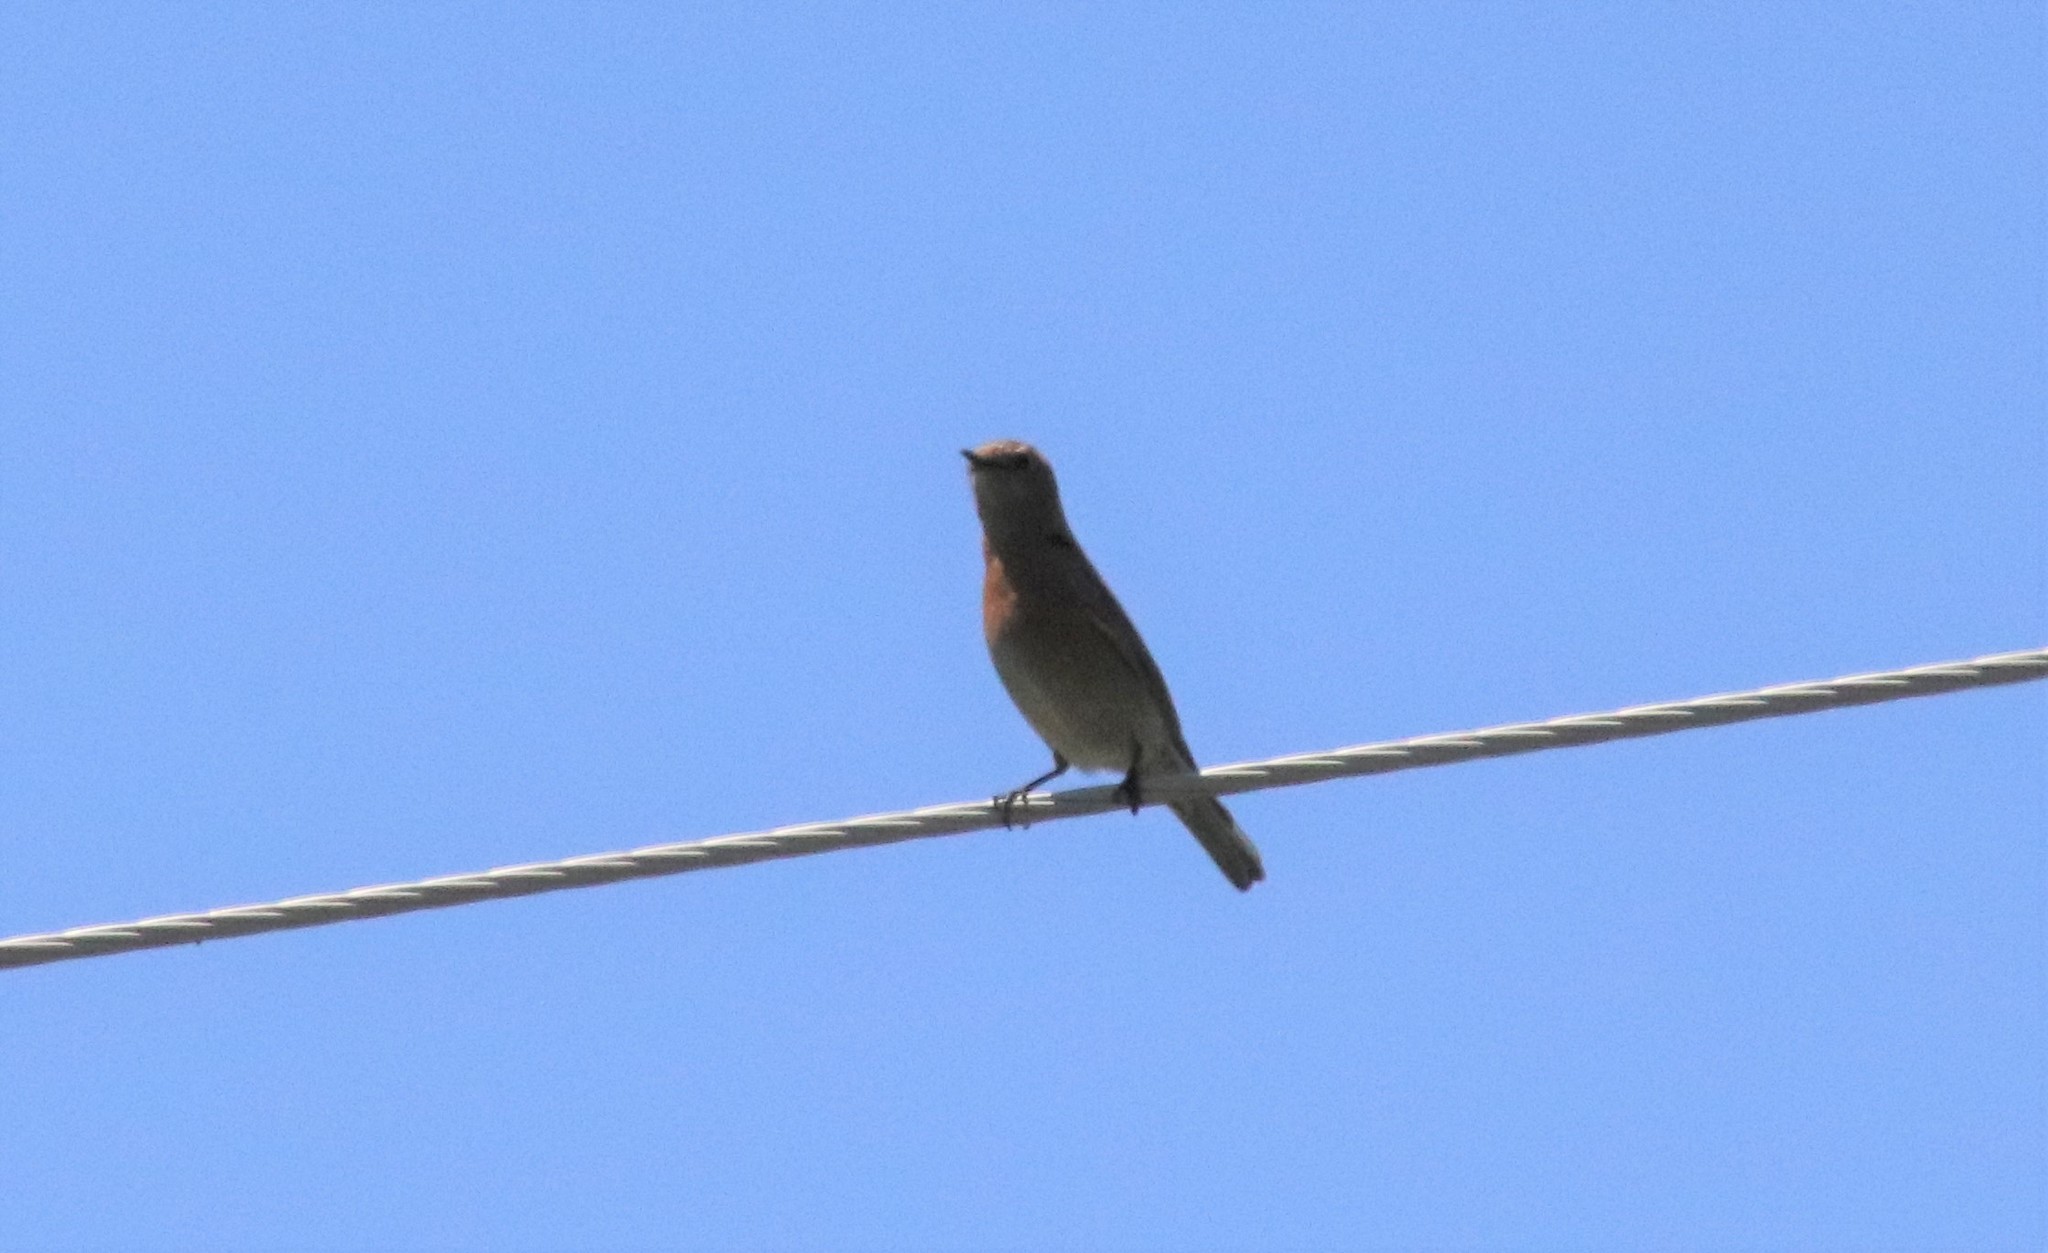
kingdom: Animalia
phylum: Chordata
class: Aves
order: Passeriformes
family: Turdidae
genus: Sialia
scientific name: Sialia mexicana
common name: Western bluebird
